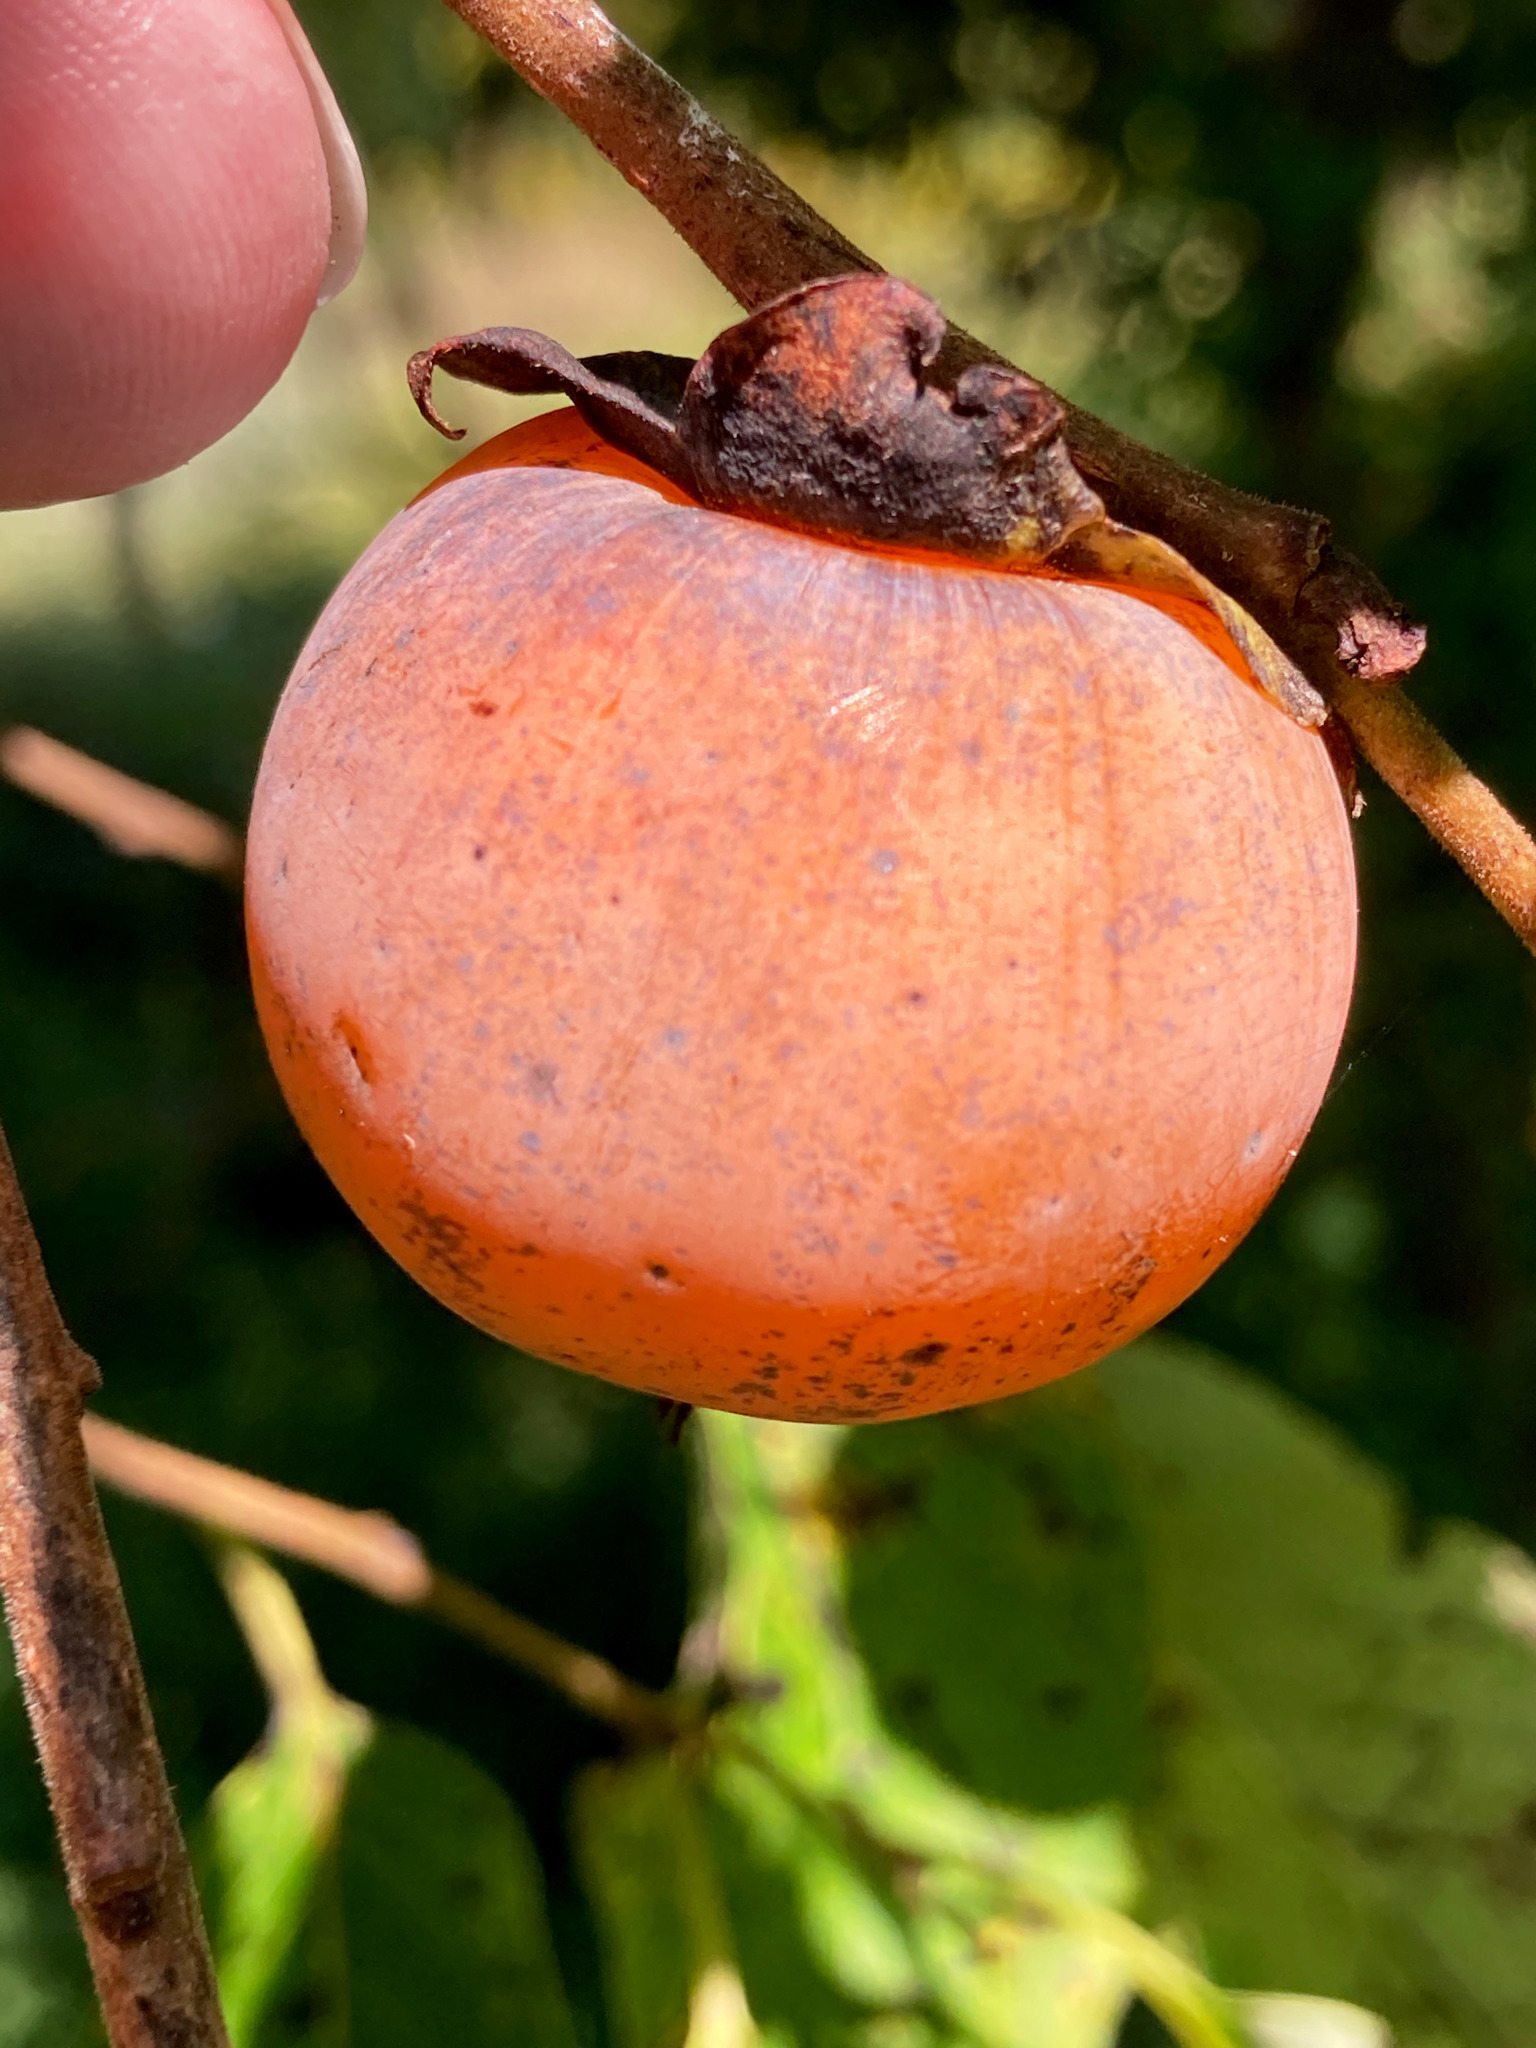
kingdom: Plantae
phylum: Tracheophyta
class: Magnoliopsida
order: Ericales
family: Ebenaceae
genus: Diospyros
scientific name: Diospyros virginiana
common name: Persimmon
